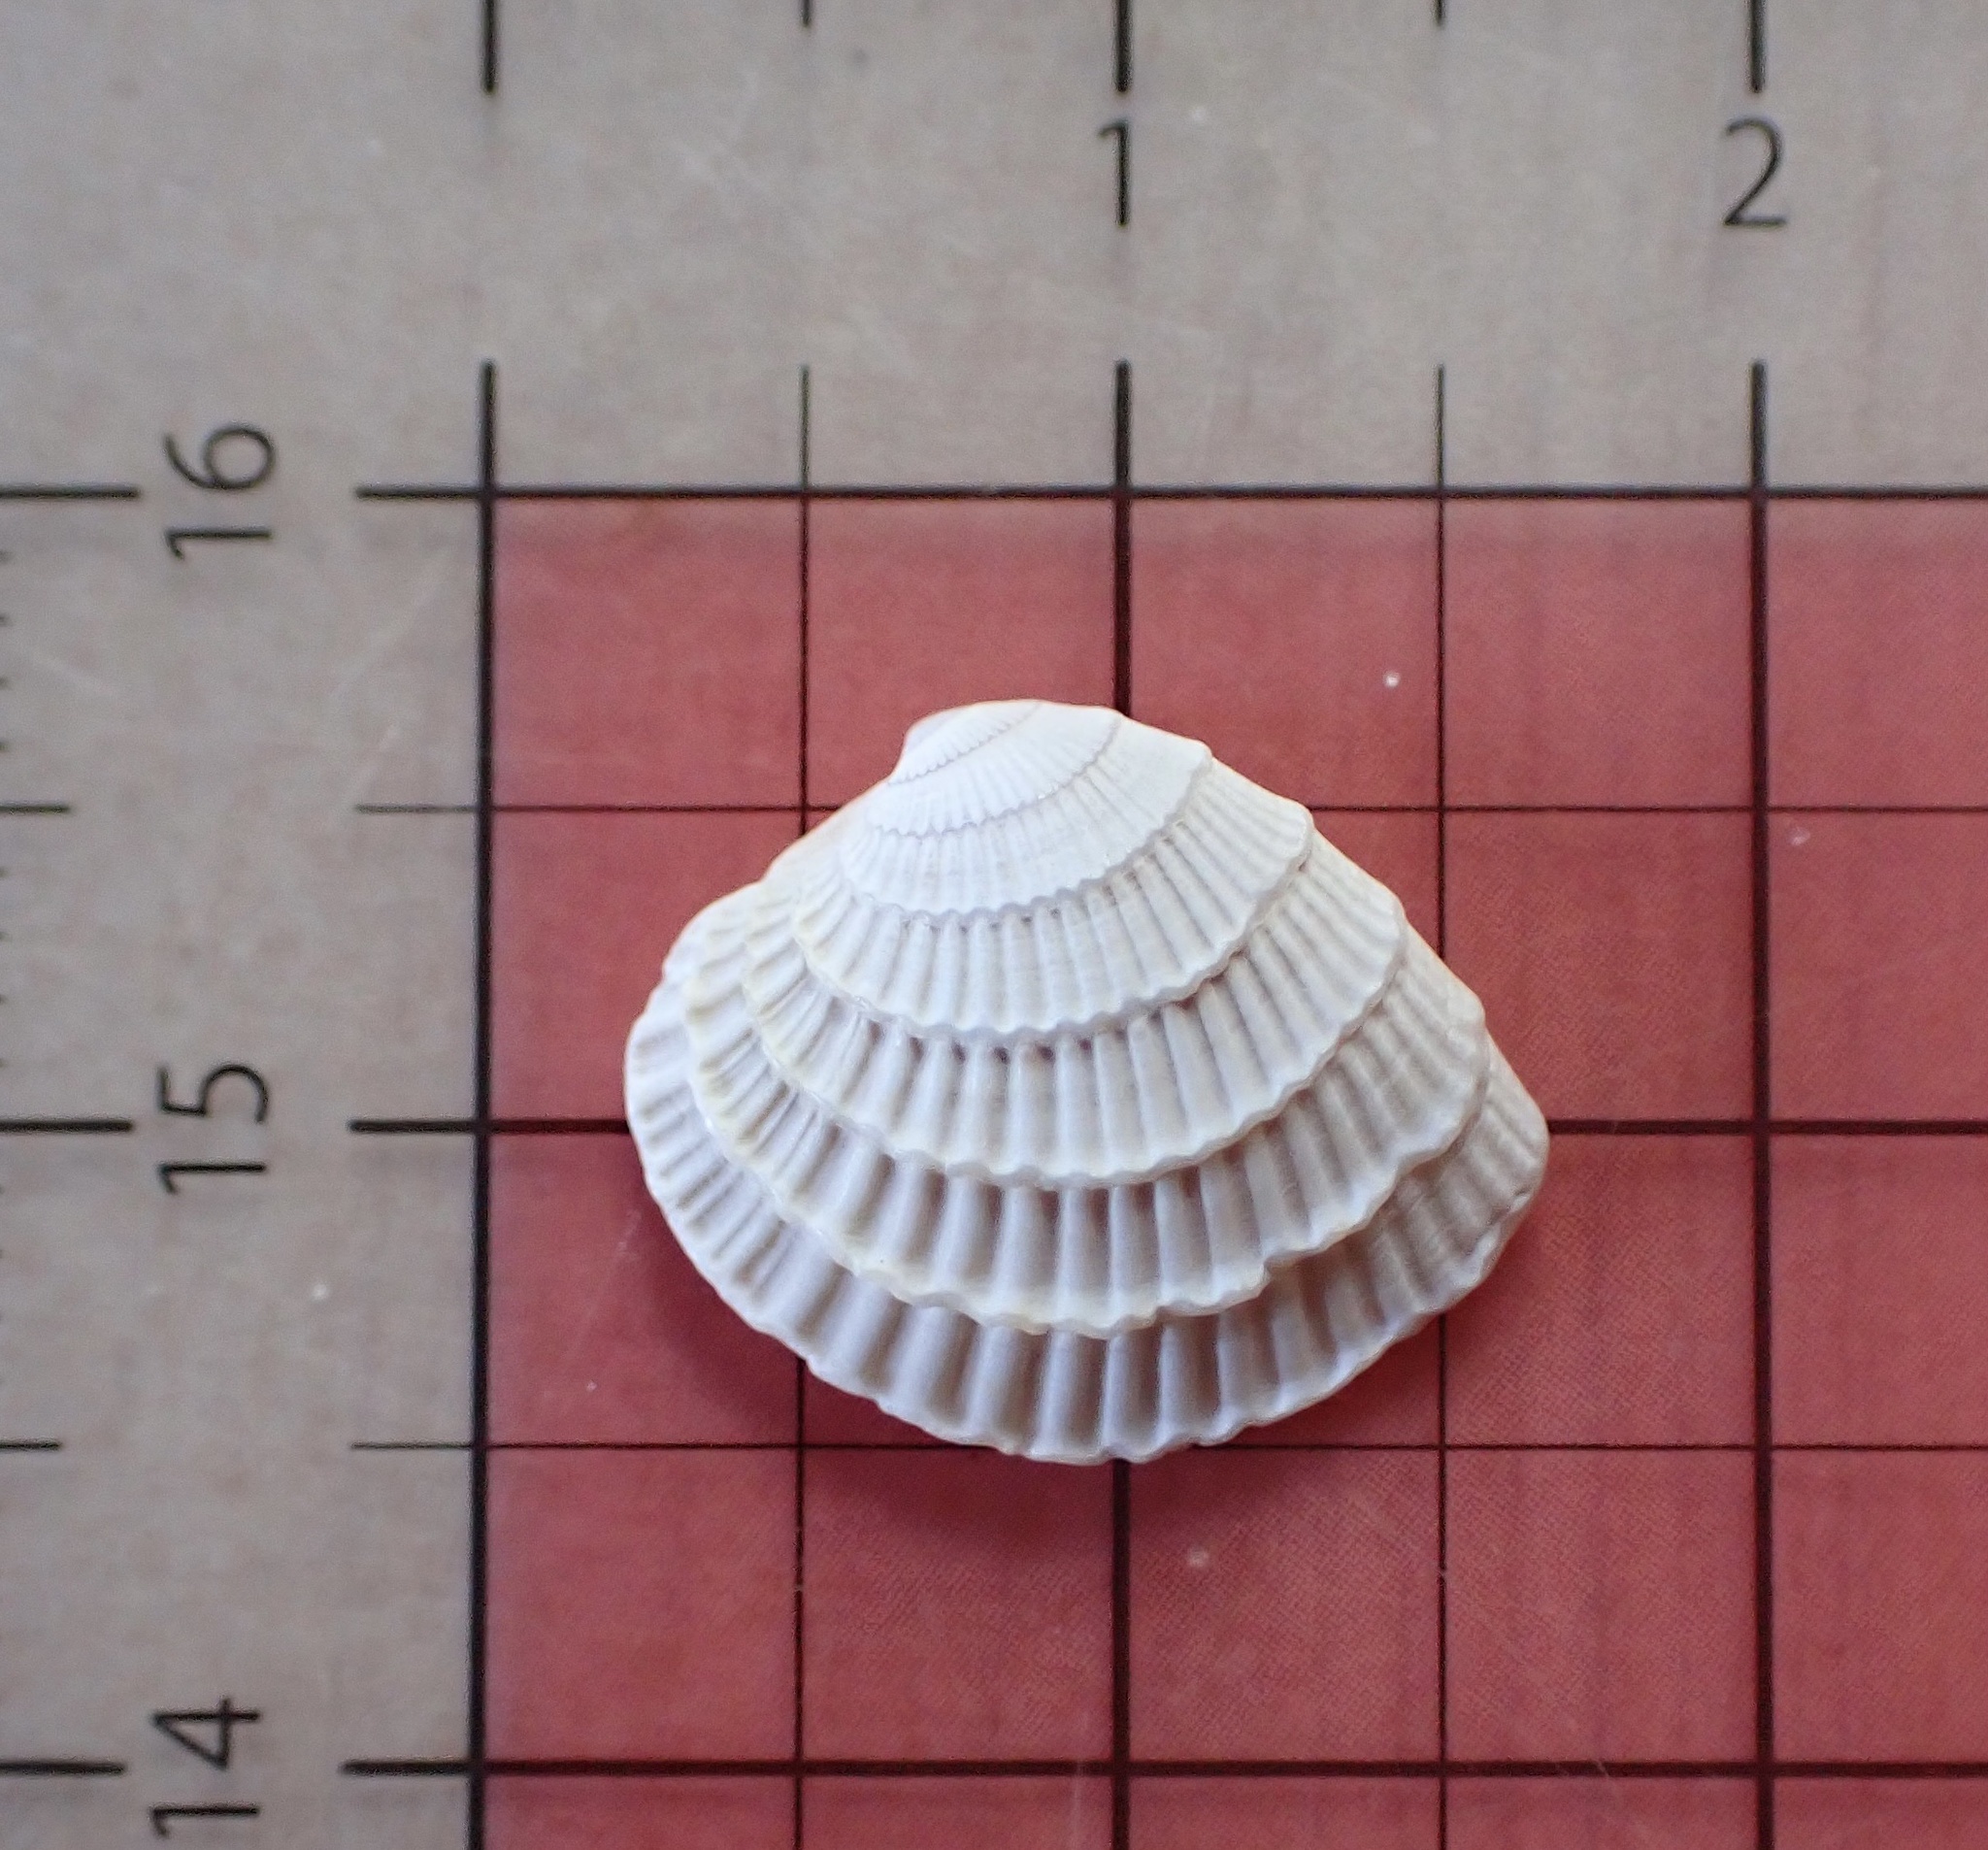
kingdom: Animalia
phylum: Mollusca
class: Bivalvia
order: Venerida
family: Veneridae
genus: Chione
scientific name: Chione elevata
